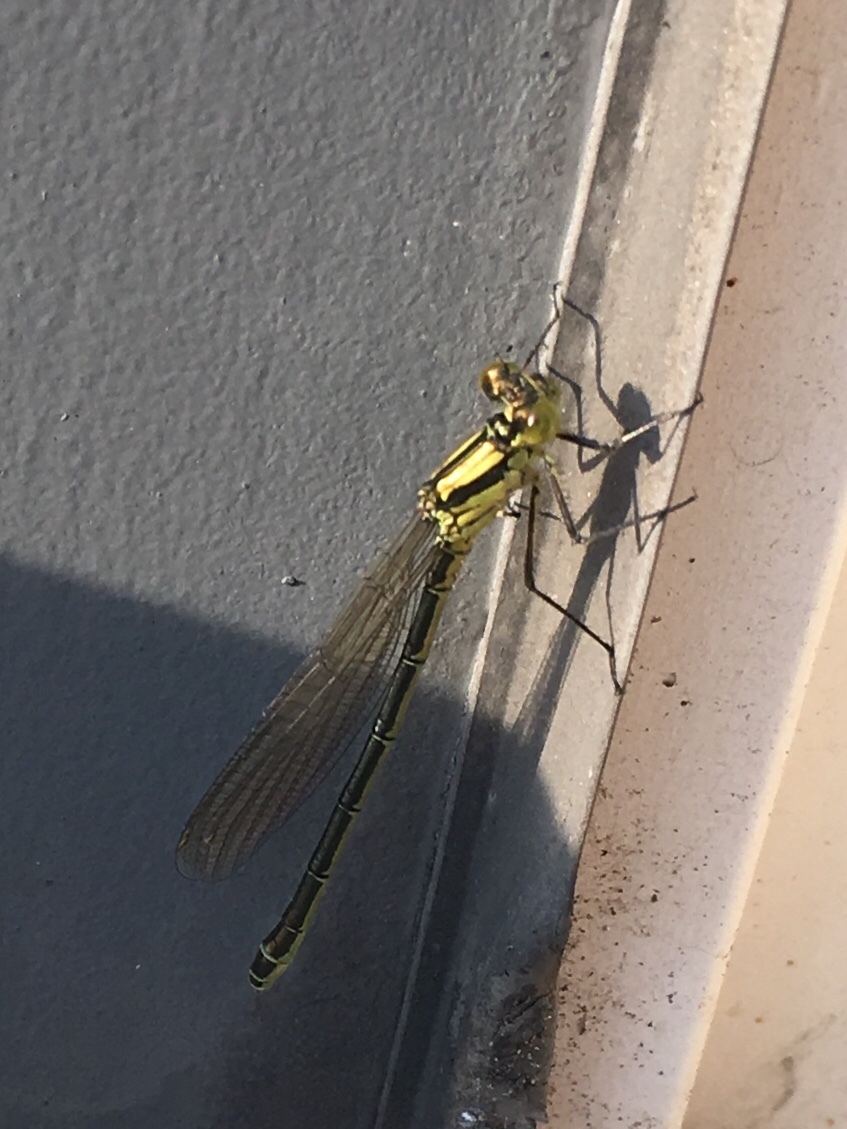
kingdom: Animalia
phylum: Arthropoda
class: Insecta
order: Odonata
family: Coenagrionidae
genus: Erythromma
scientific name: Erythromma najas
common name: Red-eyed damselfly
